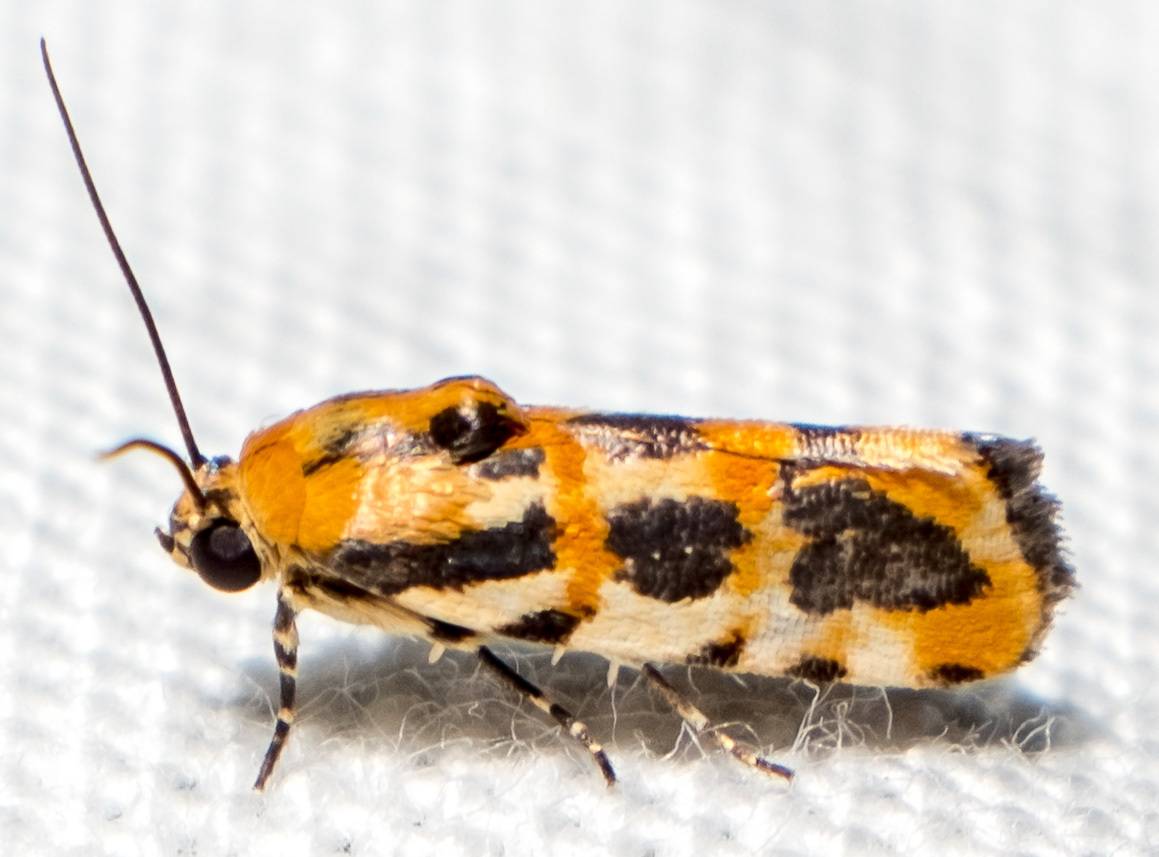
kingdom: Animalia
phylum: Arthropoda
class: Insecta
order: Lepidoptera
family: Noctuidae
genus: Acontia
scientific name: Acontia leo
